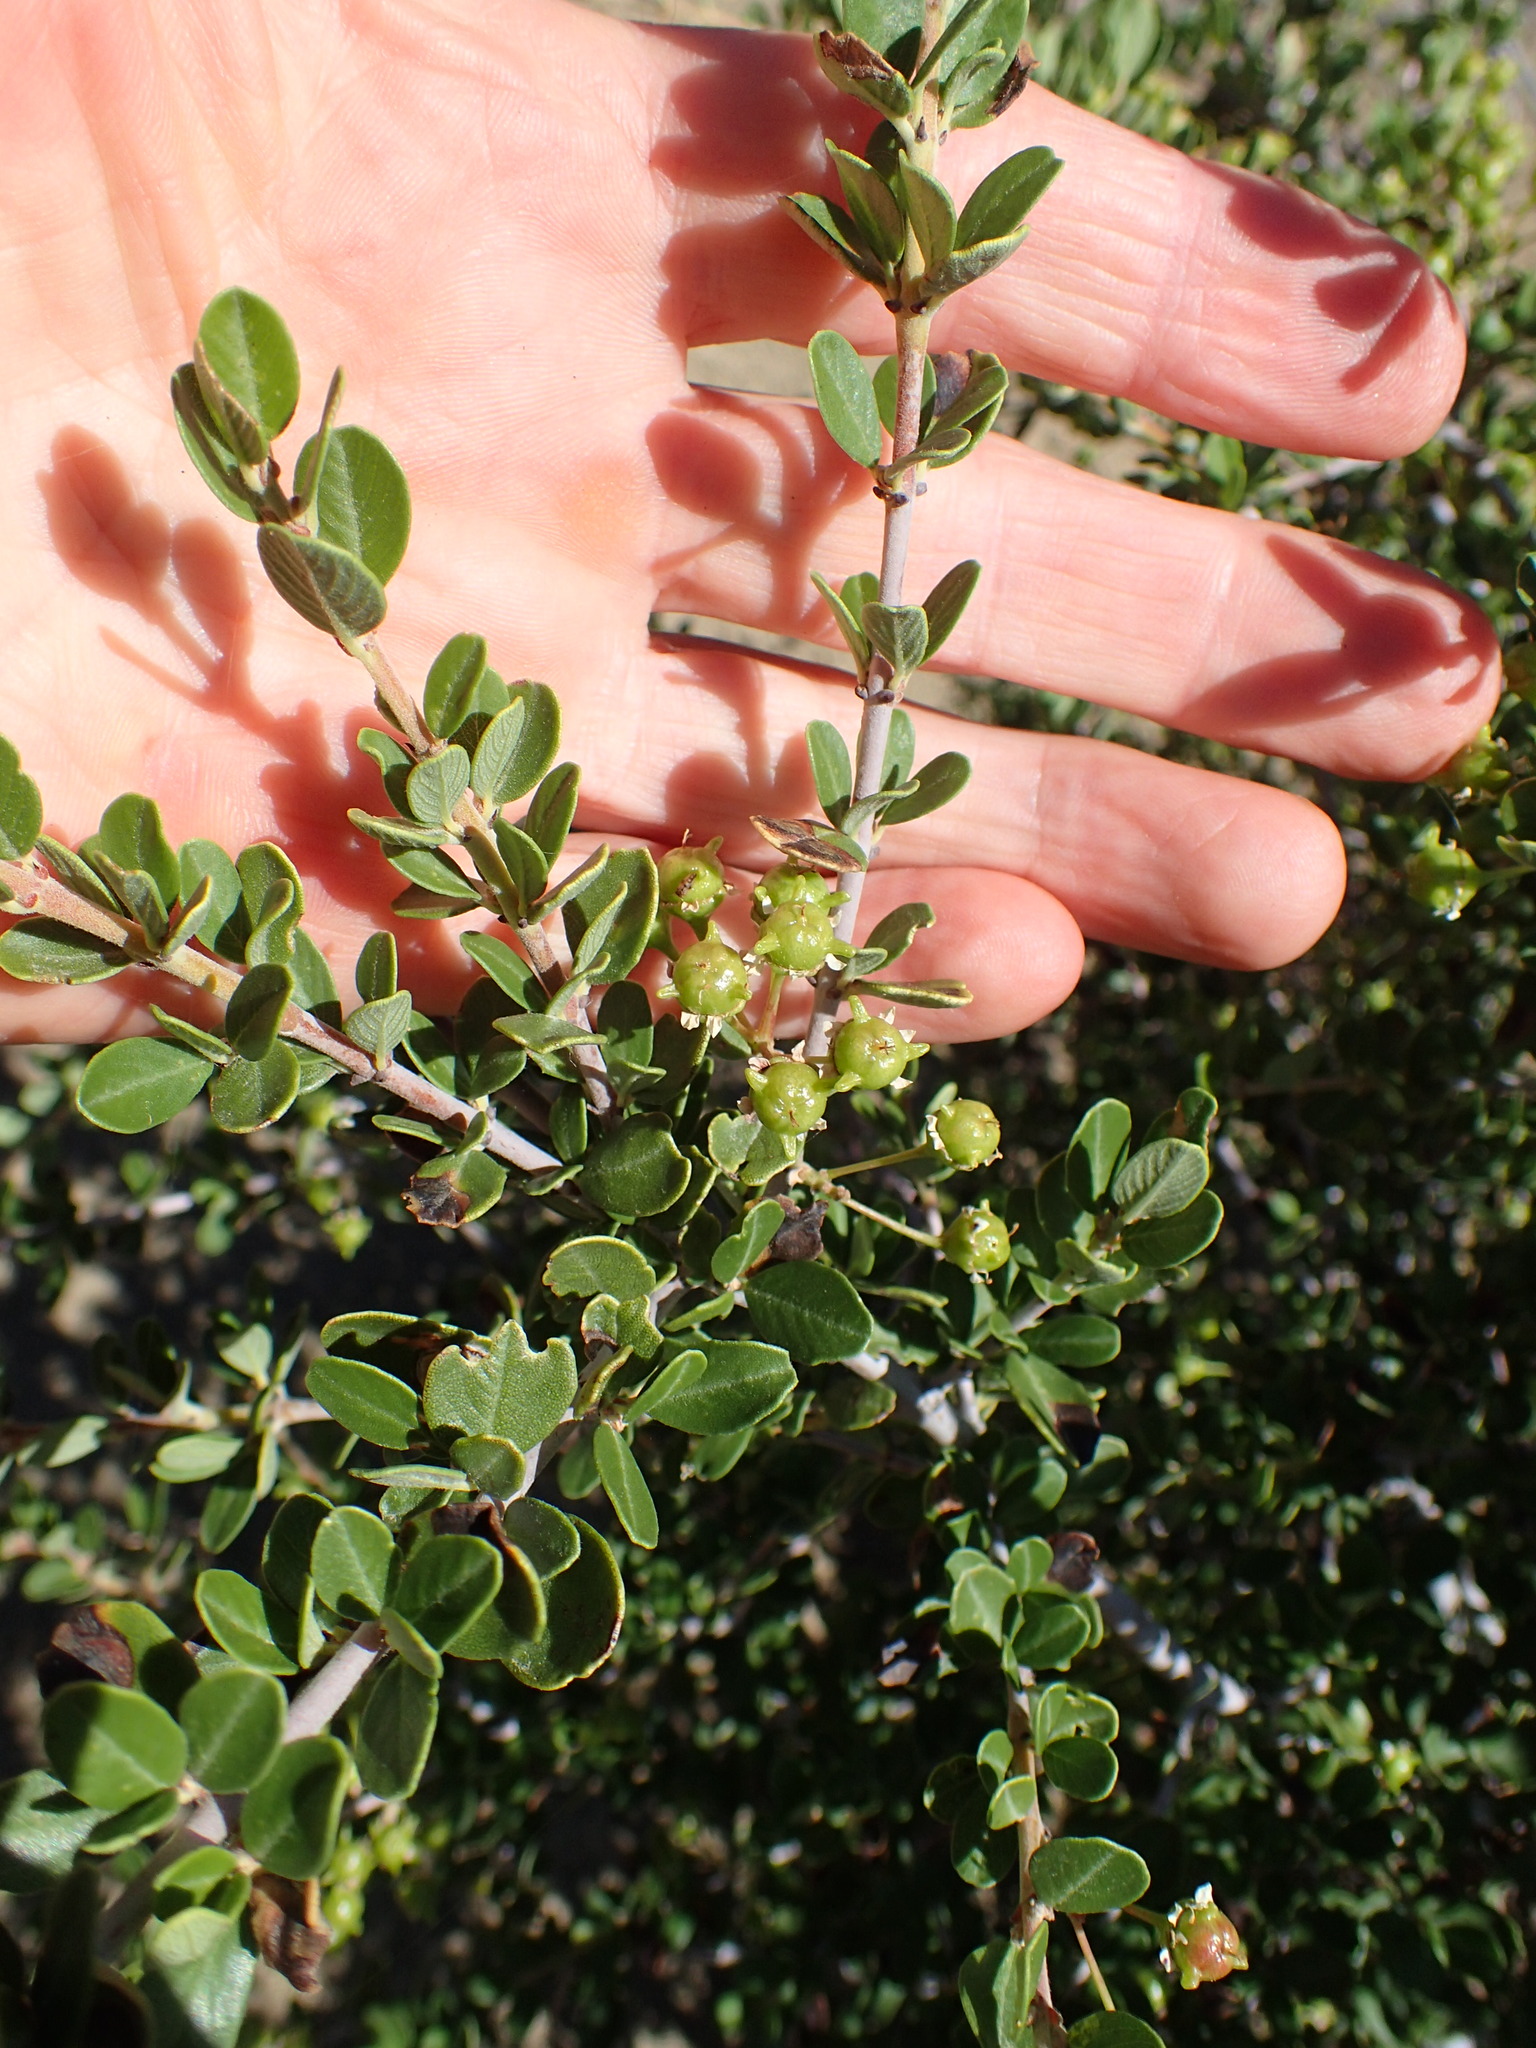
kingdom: Plantae
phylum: Tracheophyta
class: Magnoliopsida
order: Rosales
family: Rhamnaceae
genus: Ceanothus
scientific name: Ceanothus cuneatus
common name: Cuneate ceanothus
